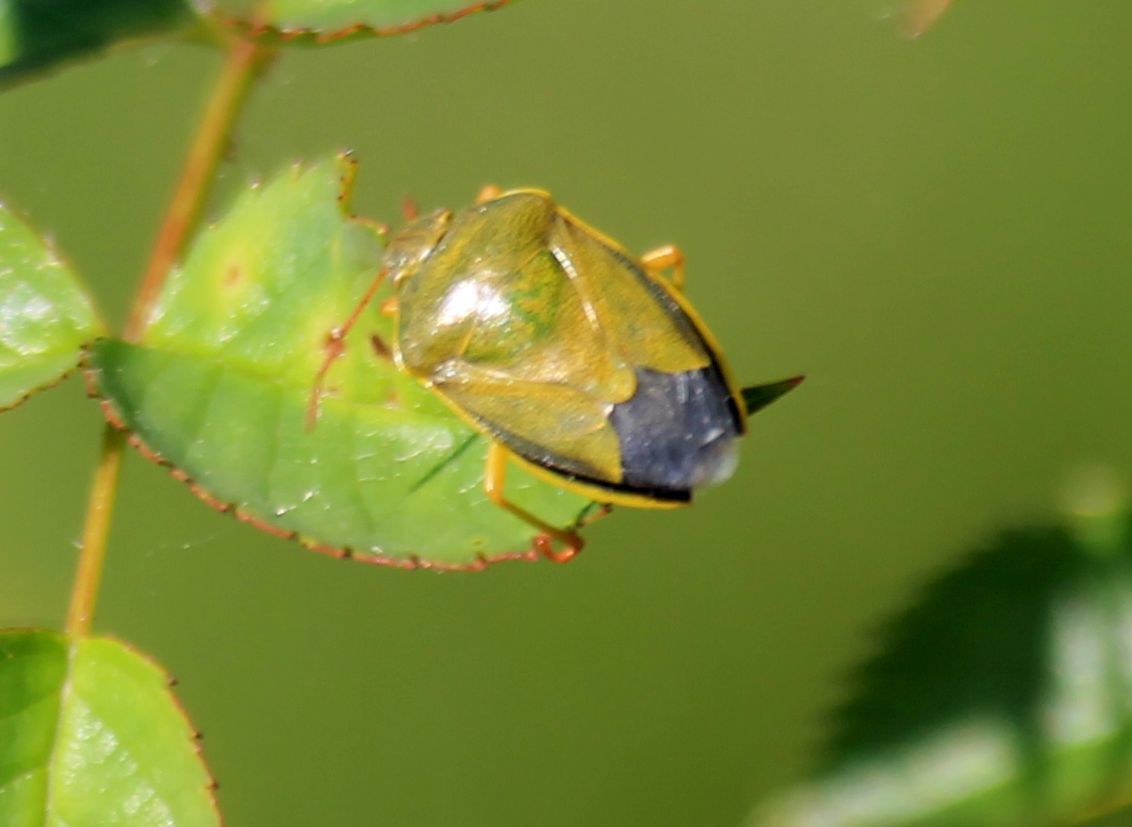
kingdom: Animalia
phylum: Arthropoda
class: Insecta
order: Hemiptera
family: Pentatomidae
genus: Piezodorus
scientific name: Piezodorus lituratus
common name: Stink bug
